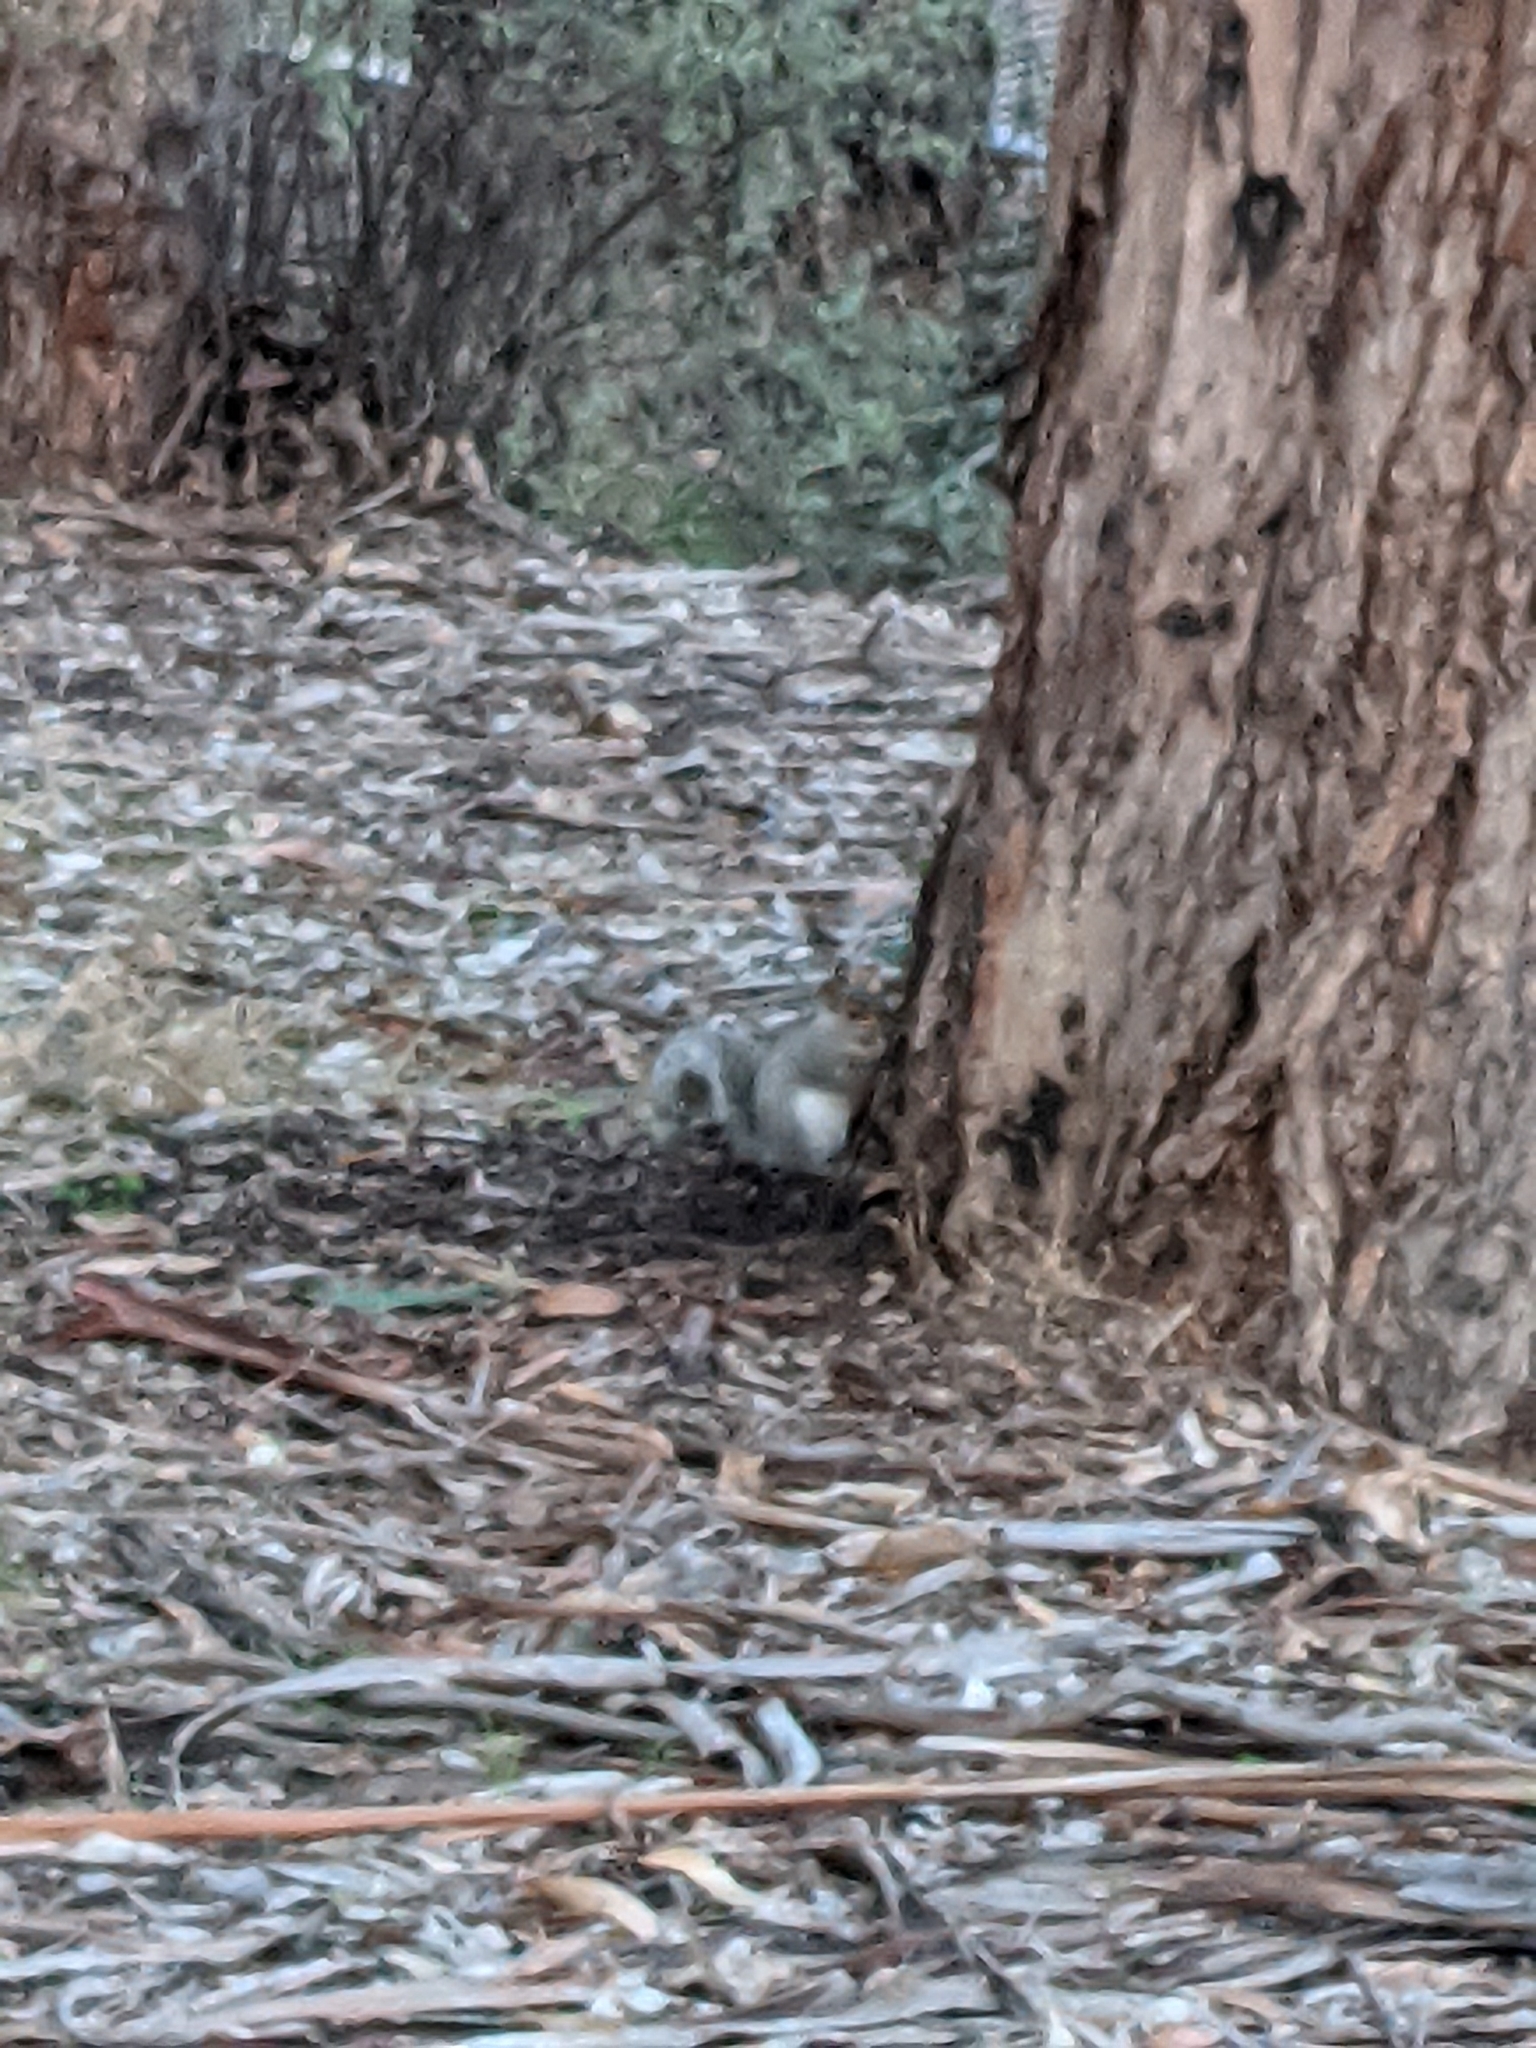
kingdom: Animalia
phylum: Chordata
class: Mammalia
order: Rodentia
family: Sciuridae
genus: Sciurus
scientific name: Sciurus carolinensis
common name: Eastern gray squirrel
